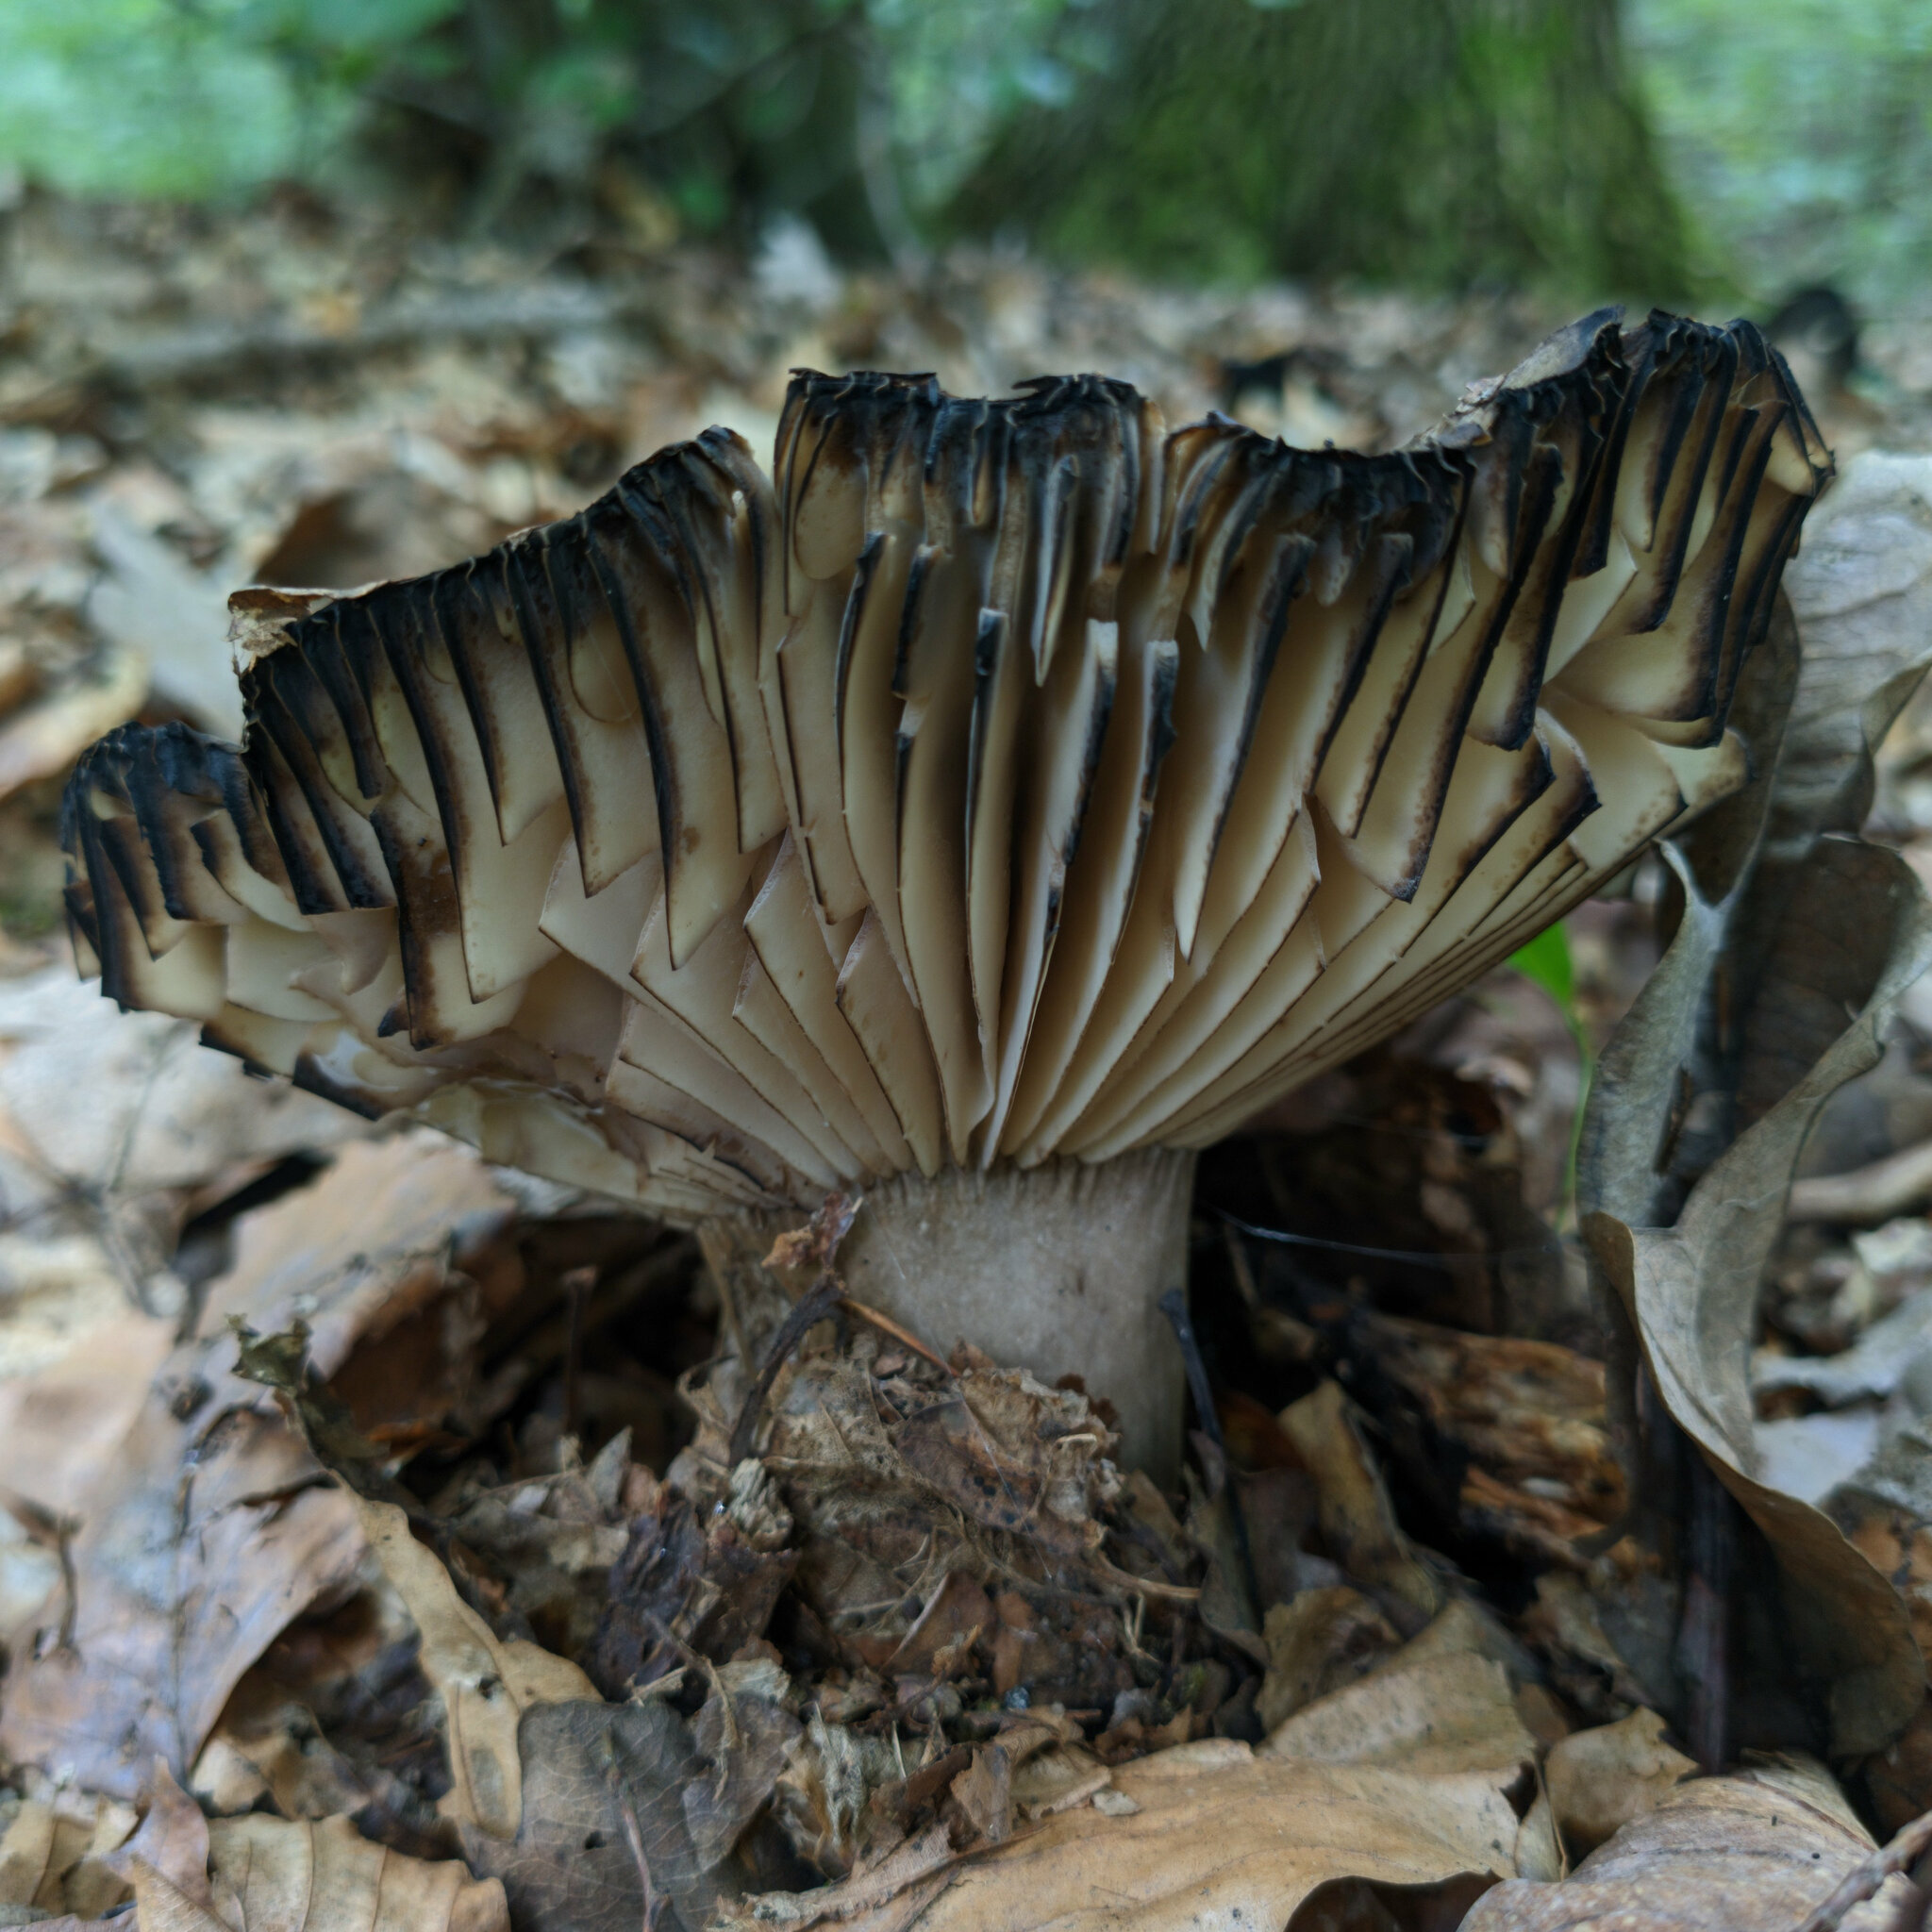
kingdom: Fungi
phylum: Basidiomycota
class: Agaricomycetes
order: Russulales
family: Russulaceae
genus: Russula
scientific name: Russula adusta
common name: Winecork brittlegill
